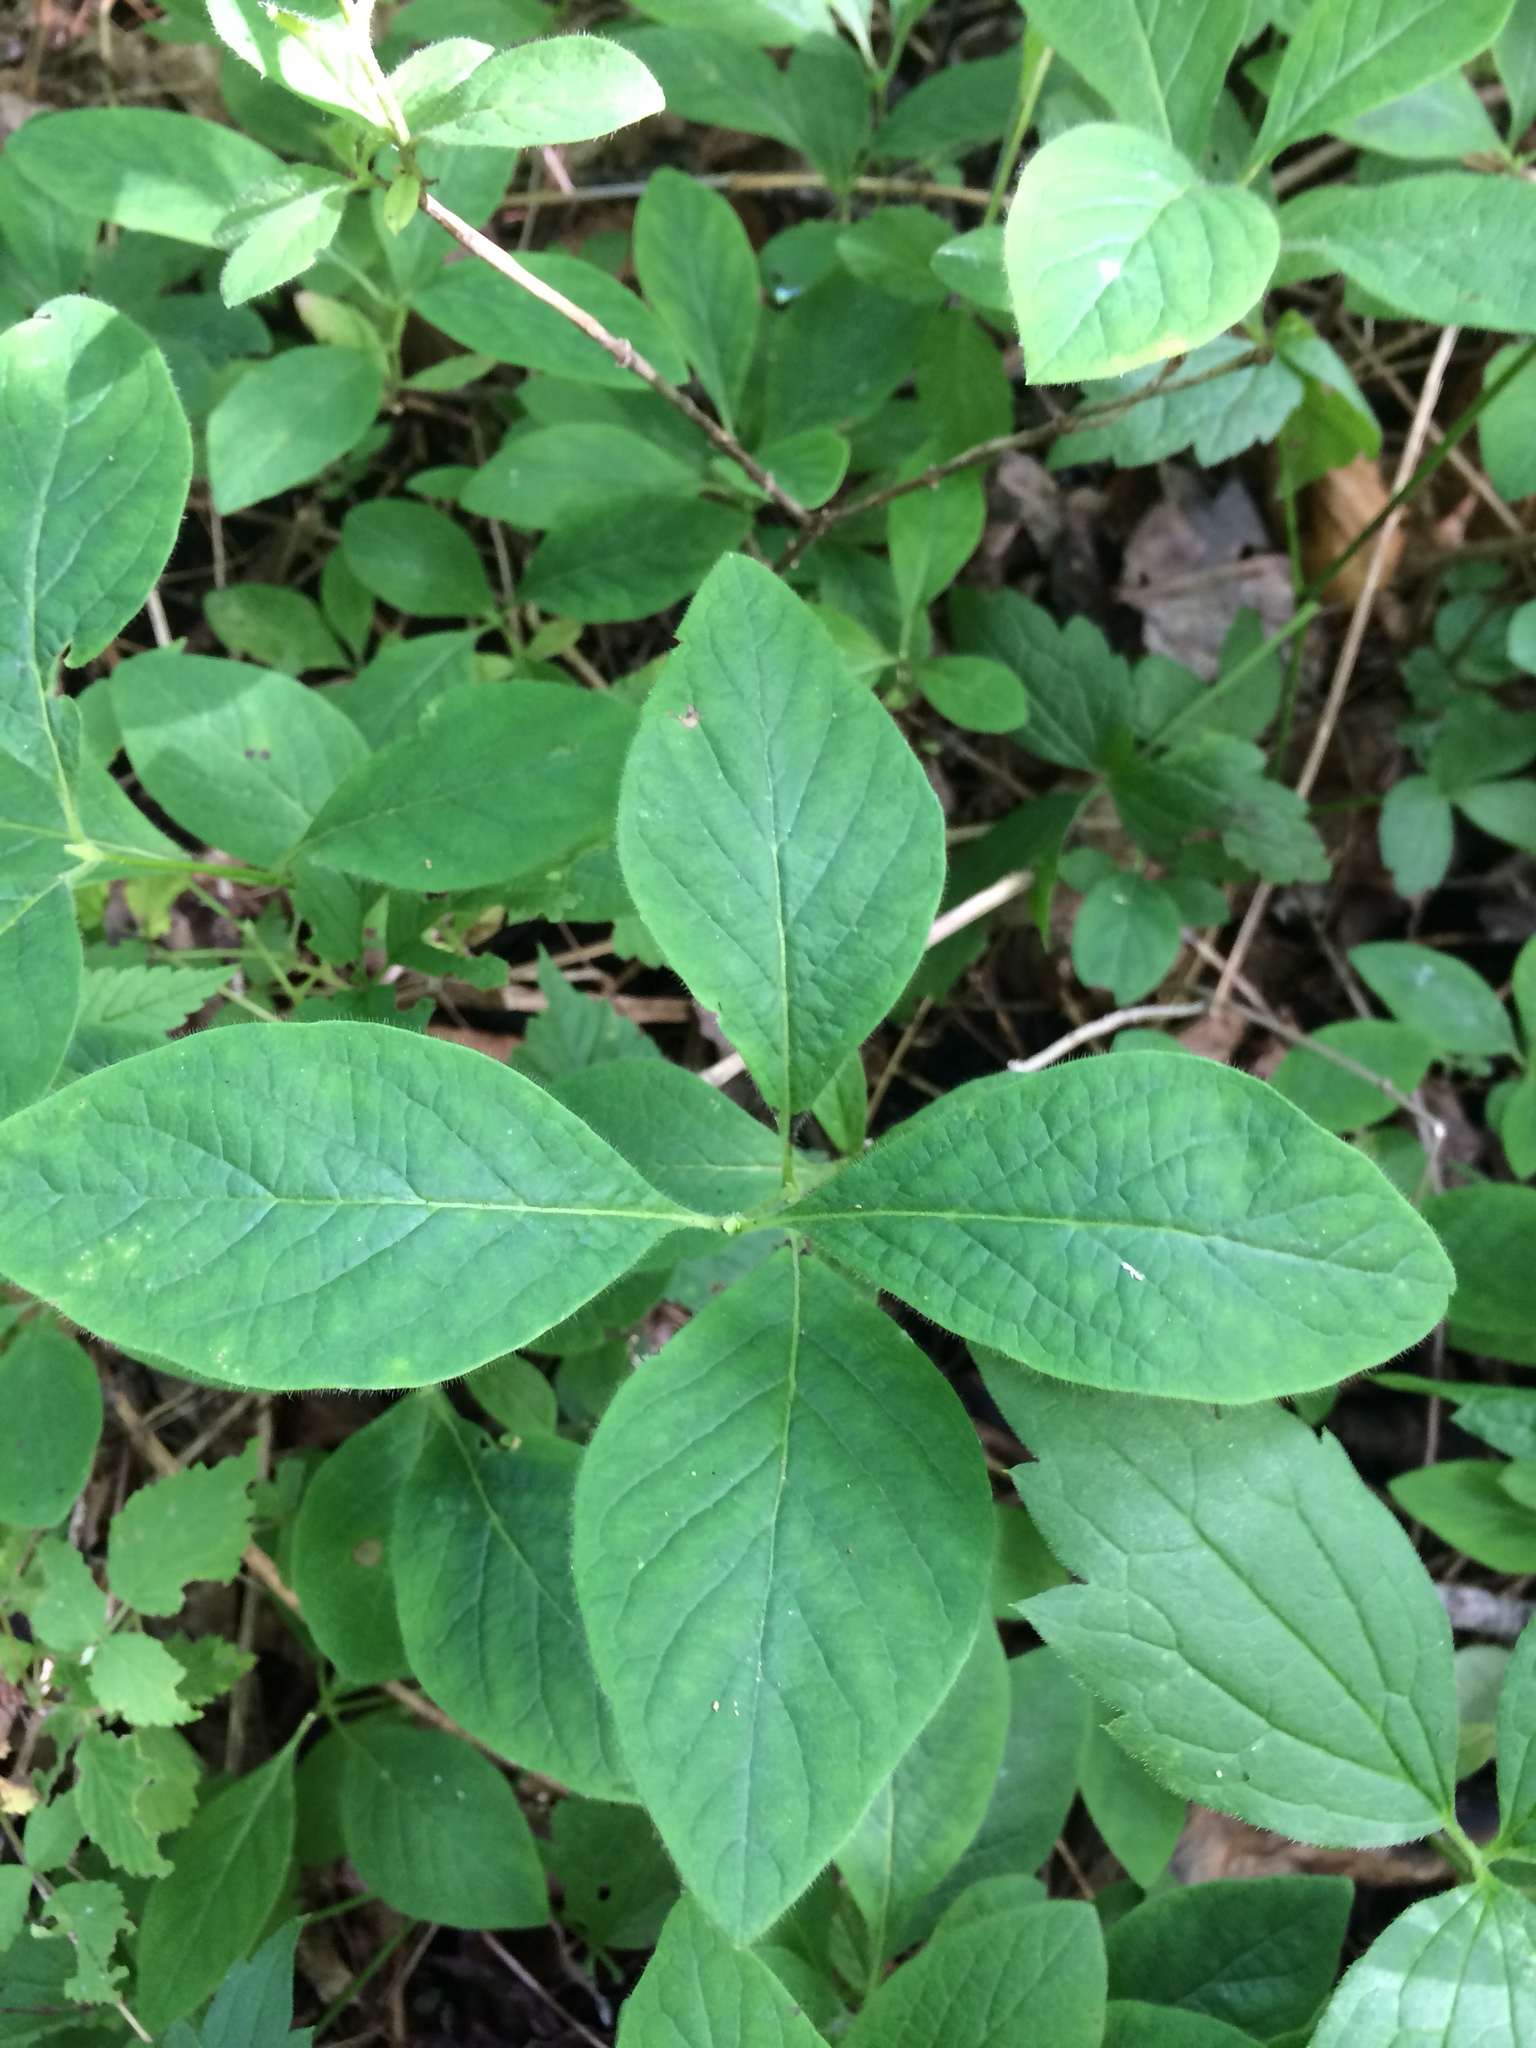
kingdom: Plantae
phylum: Tracheophyta
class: Magnoliopsida
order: Dipsacales
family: Caprifoliaceae
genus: Lonicera
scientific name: Lonicera hirsuta
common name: Hairy honeysuckle
